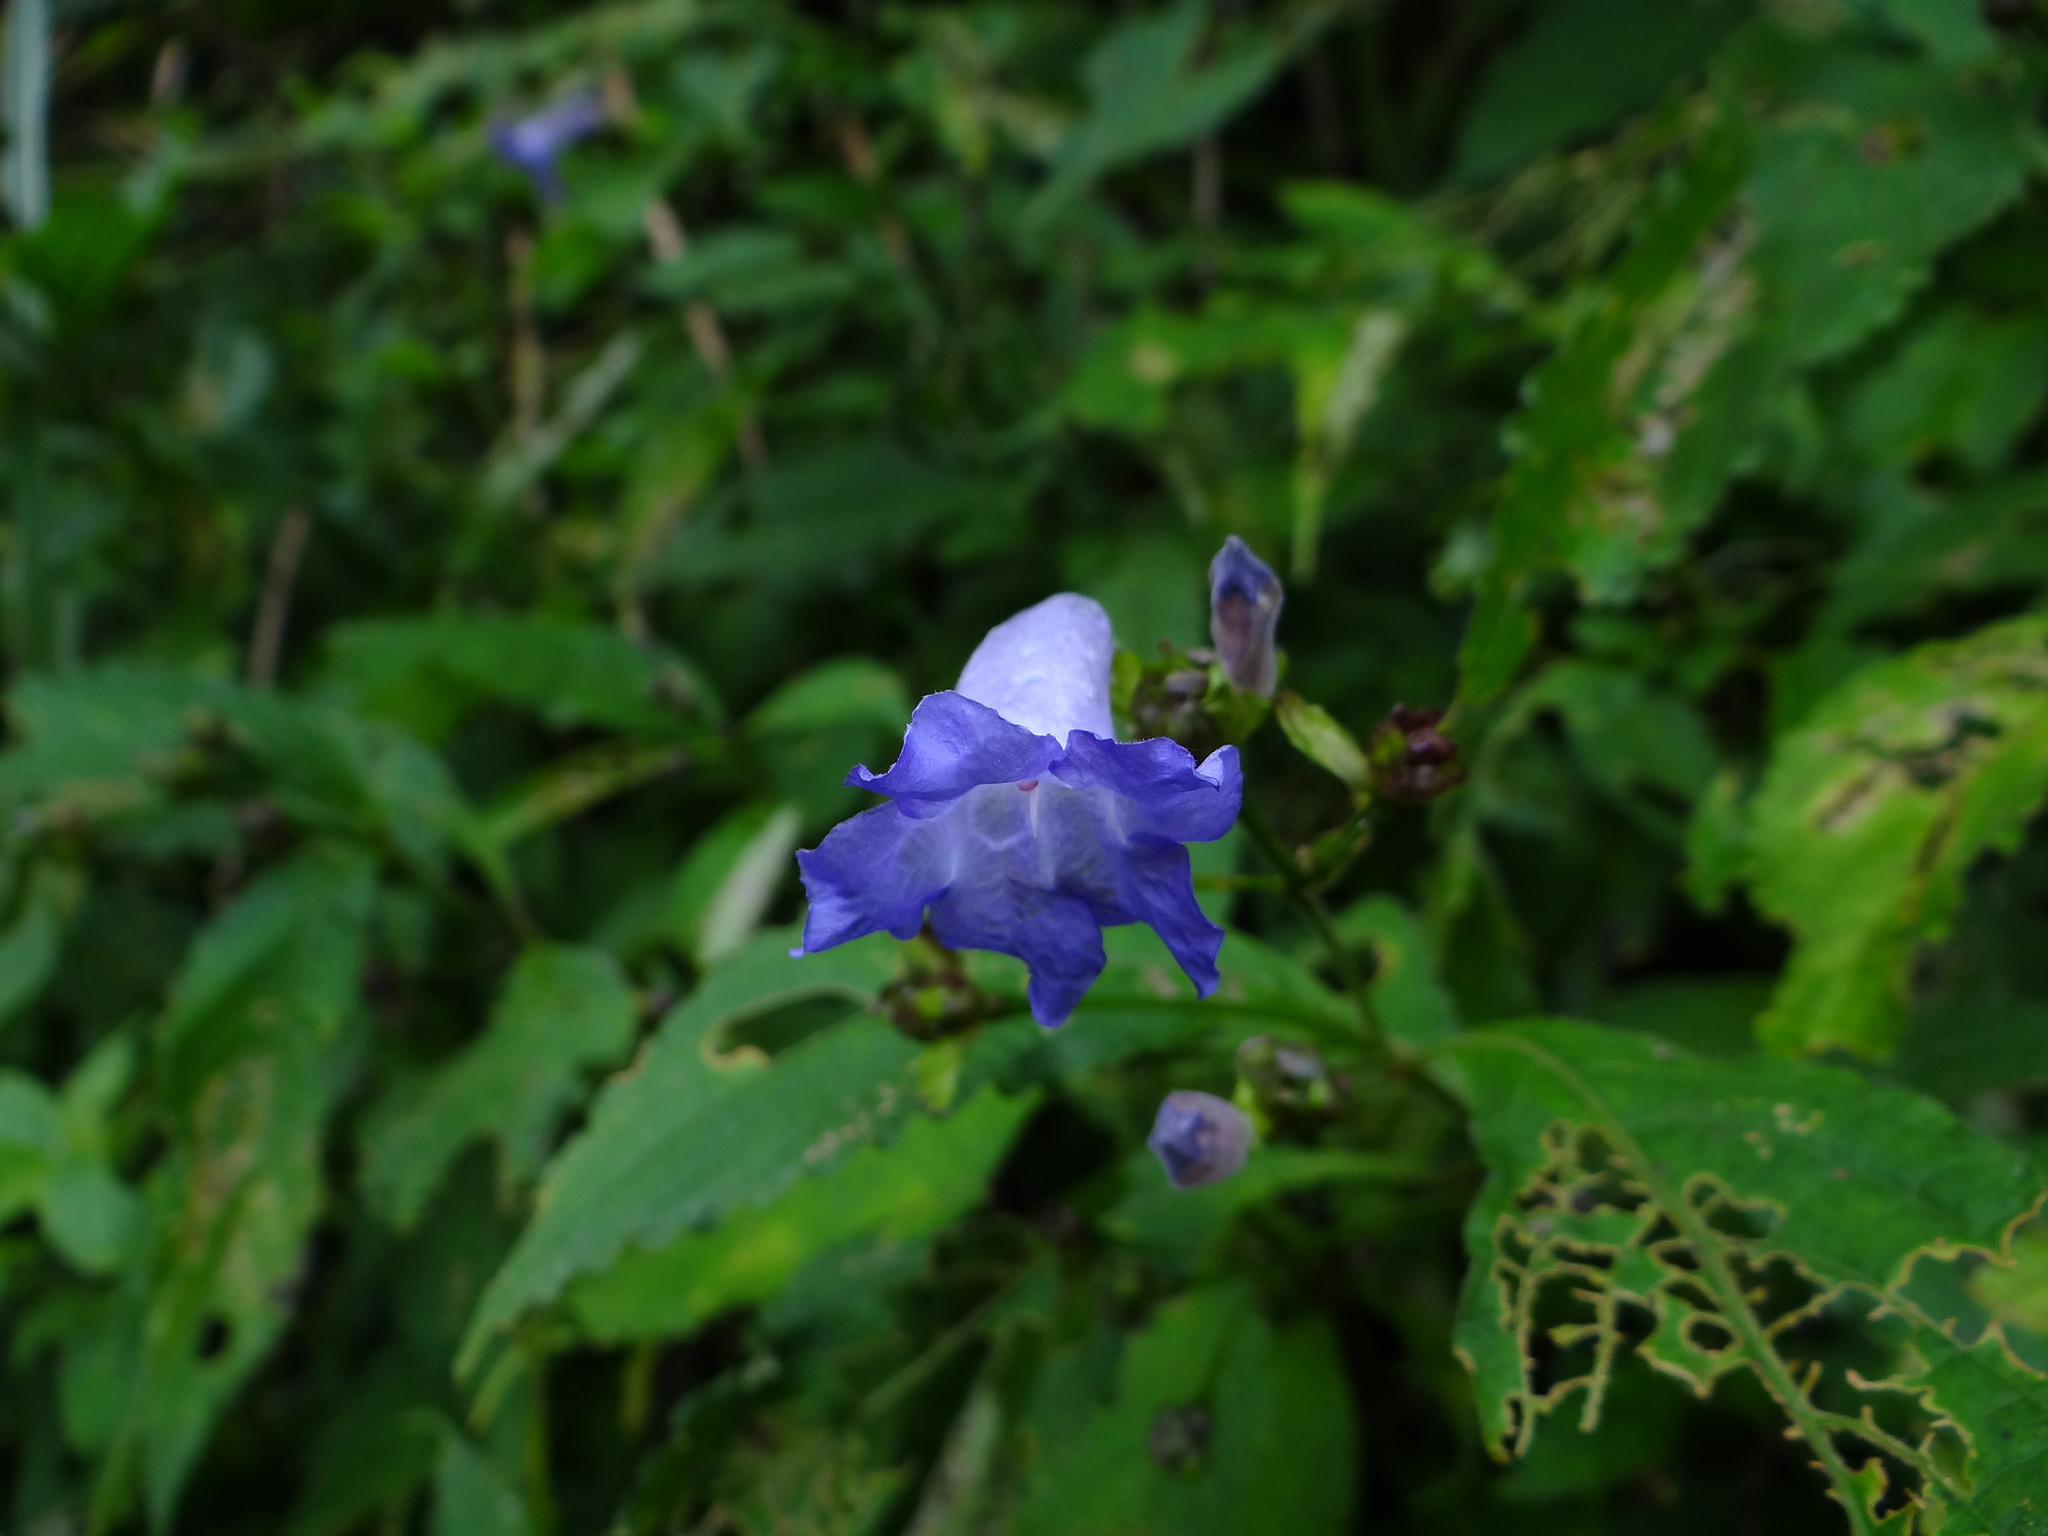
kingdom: Plantae
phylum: Tracheophyta
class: Magnoliopsida
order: Lamiales
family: Acanthaceae
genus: Strobilanthes
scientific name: Strobilanthes formosana
